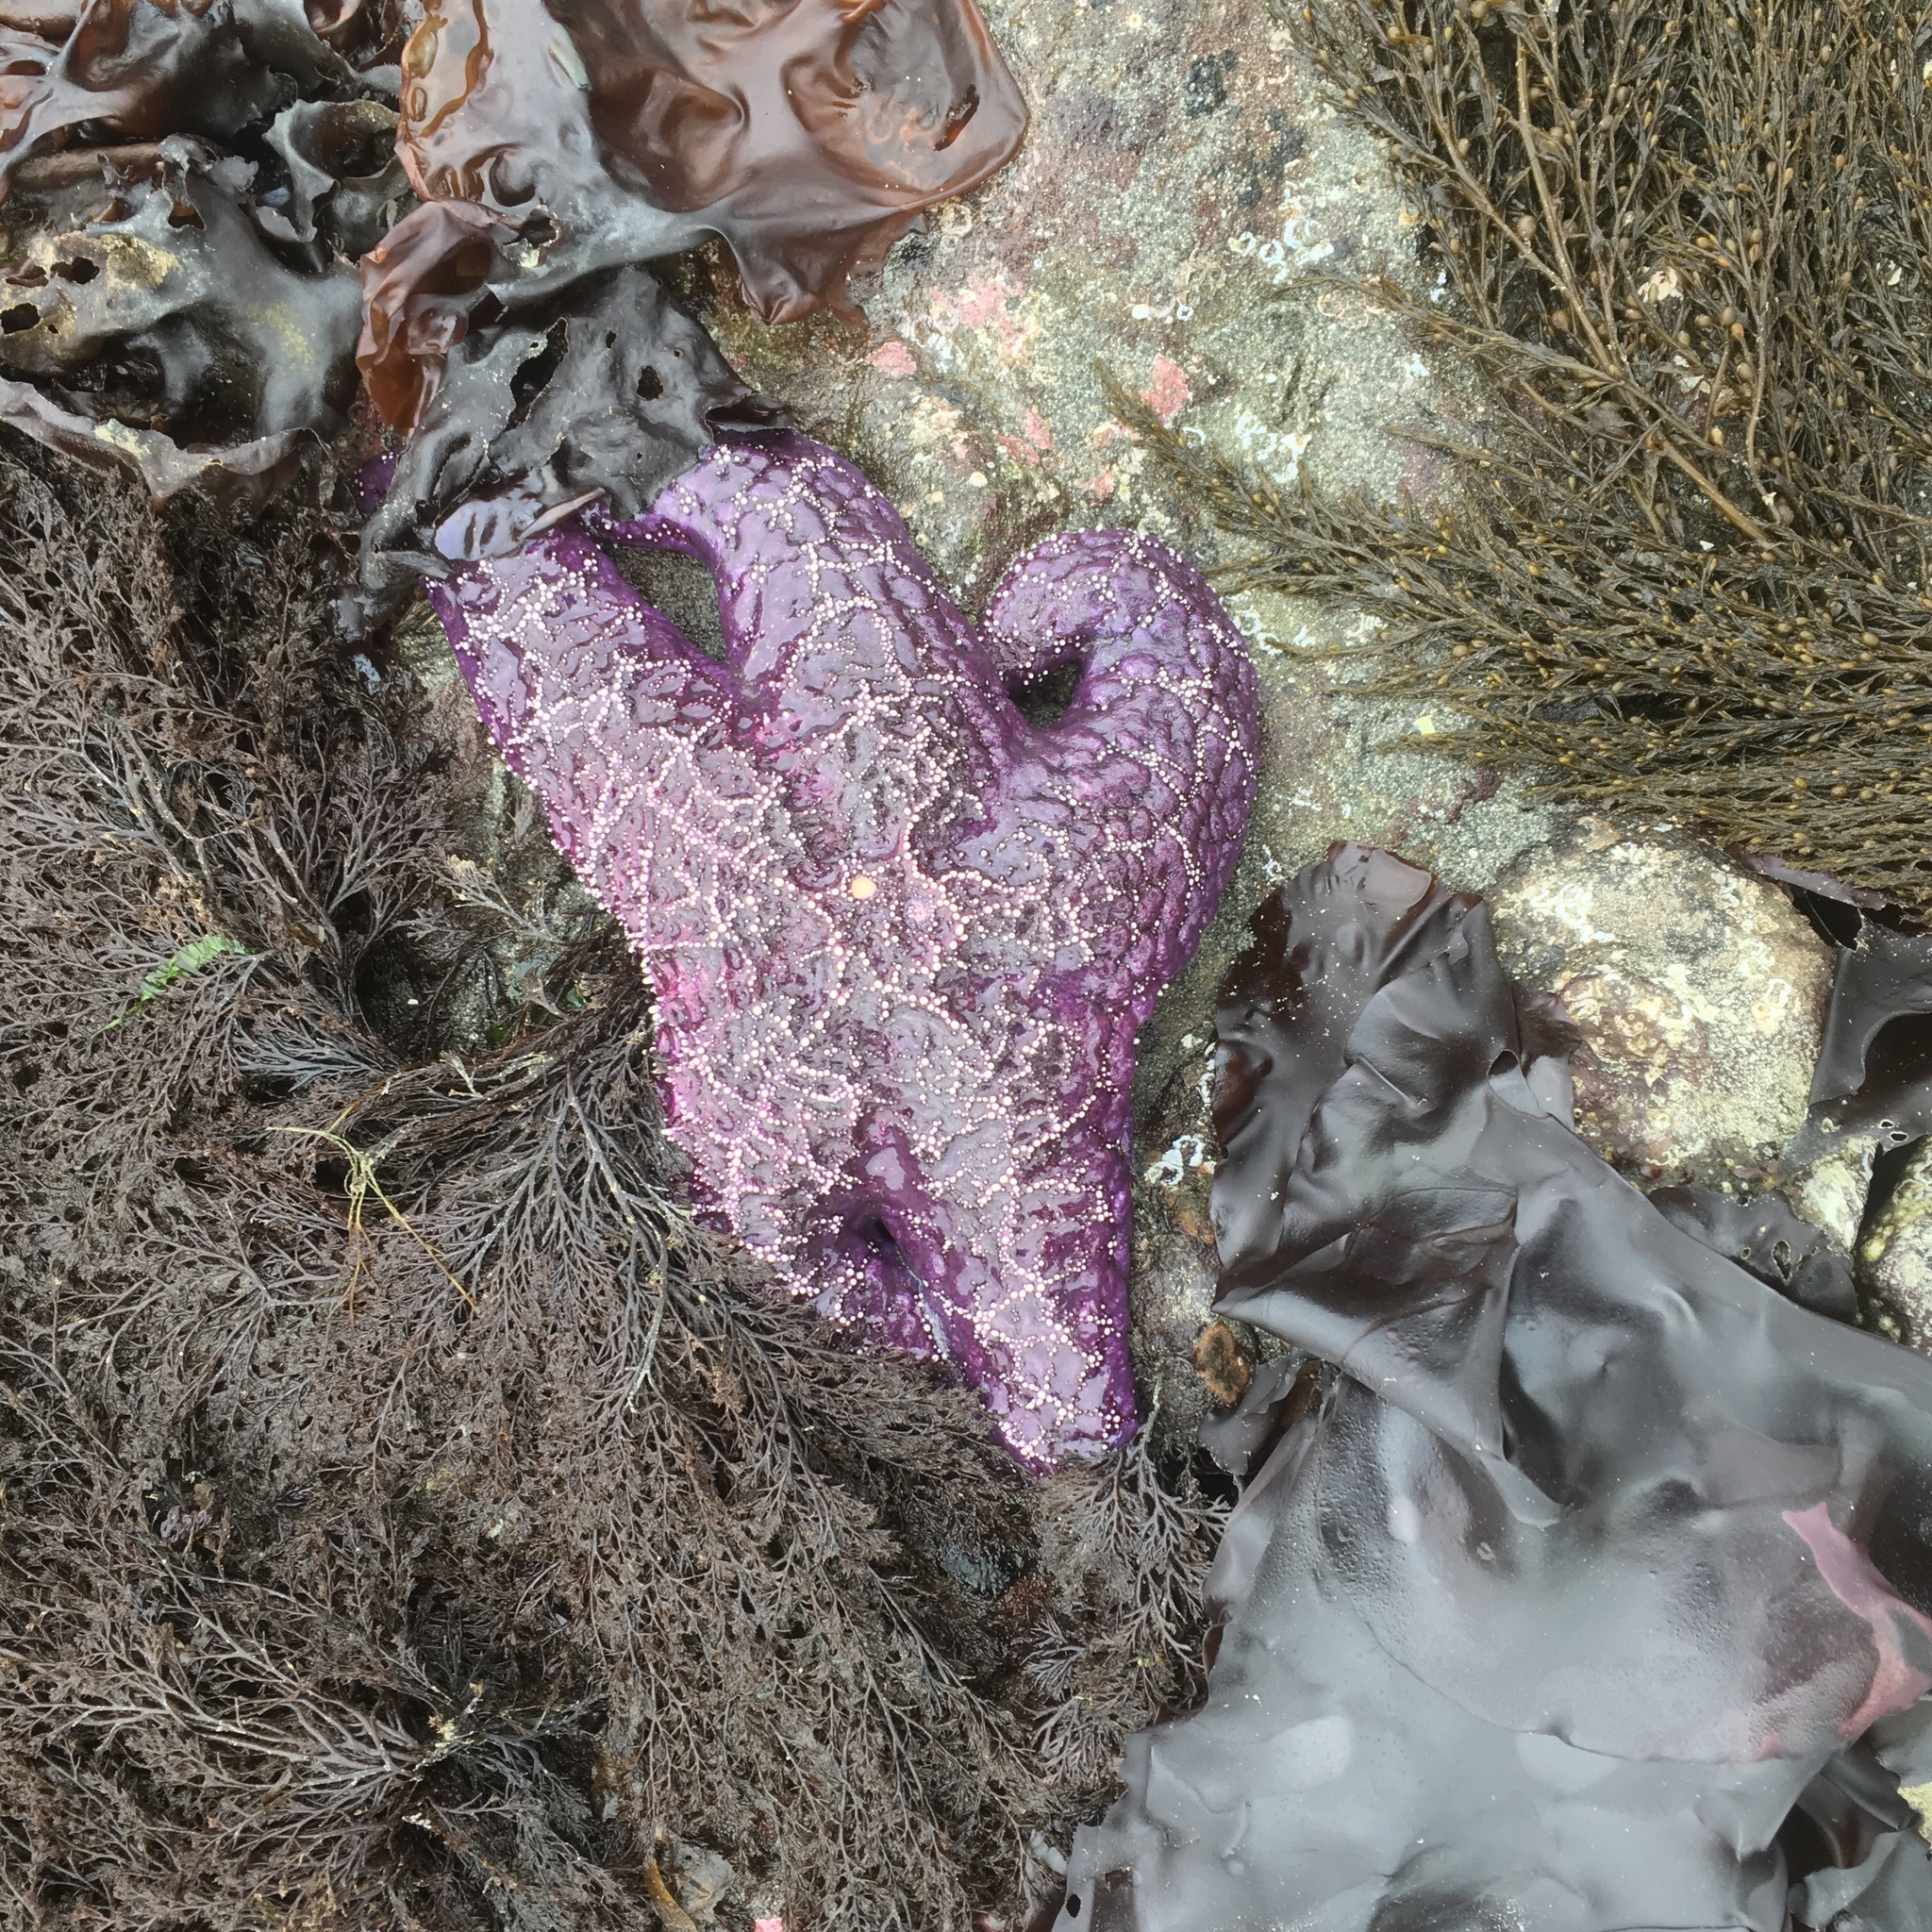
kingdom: Animalia
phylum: Echinodermata
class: Asteroidea
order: Forcipulatida
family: Asteriidae
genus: Pisaster
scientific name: Pisaster ochraceus
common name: Ochre stars
